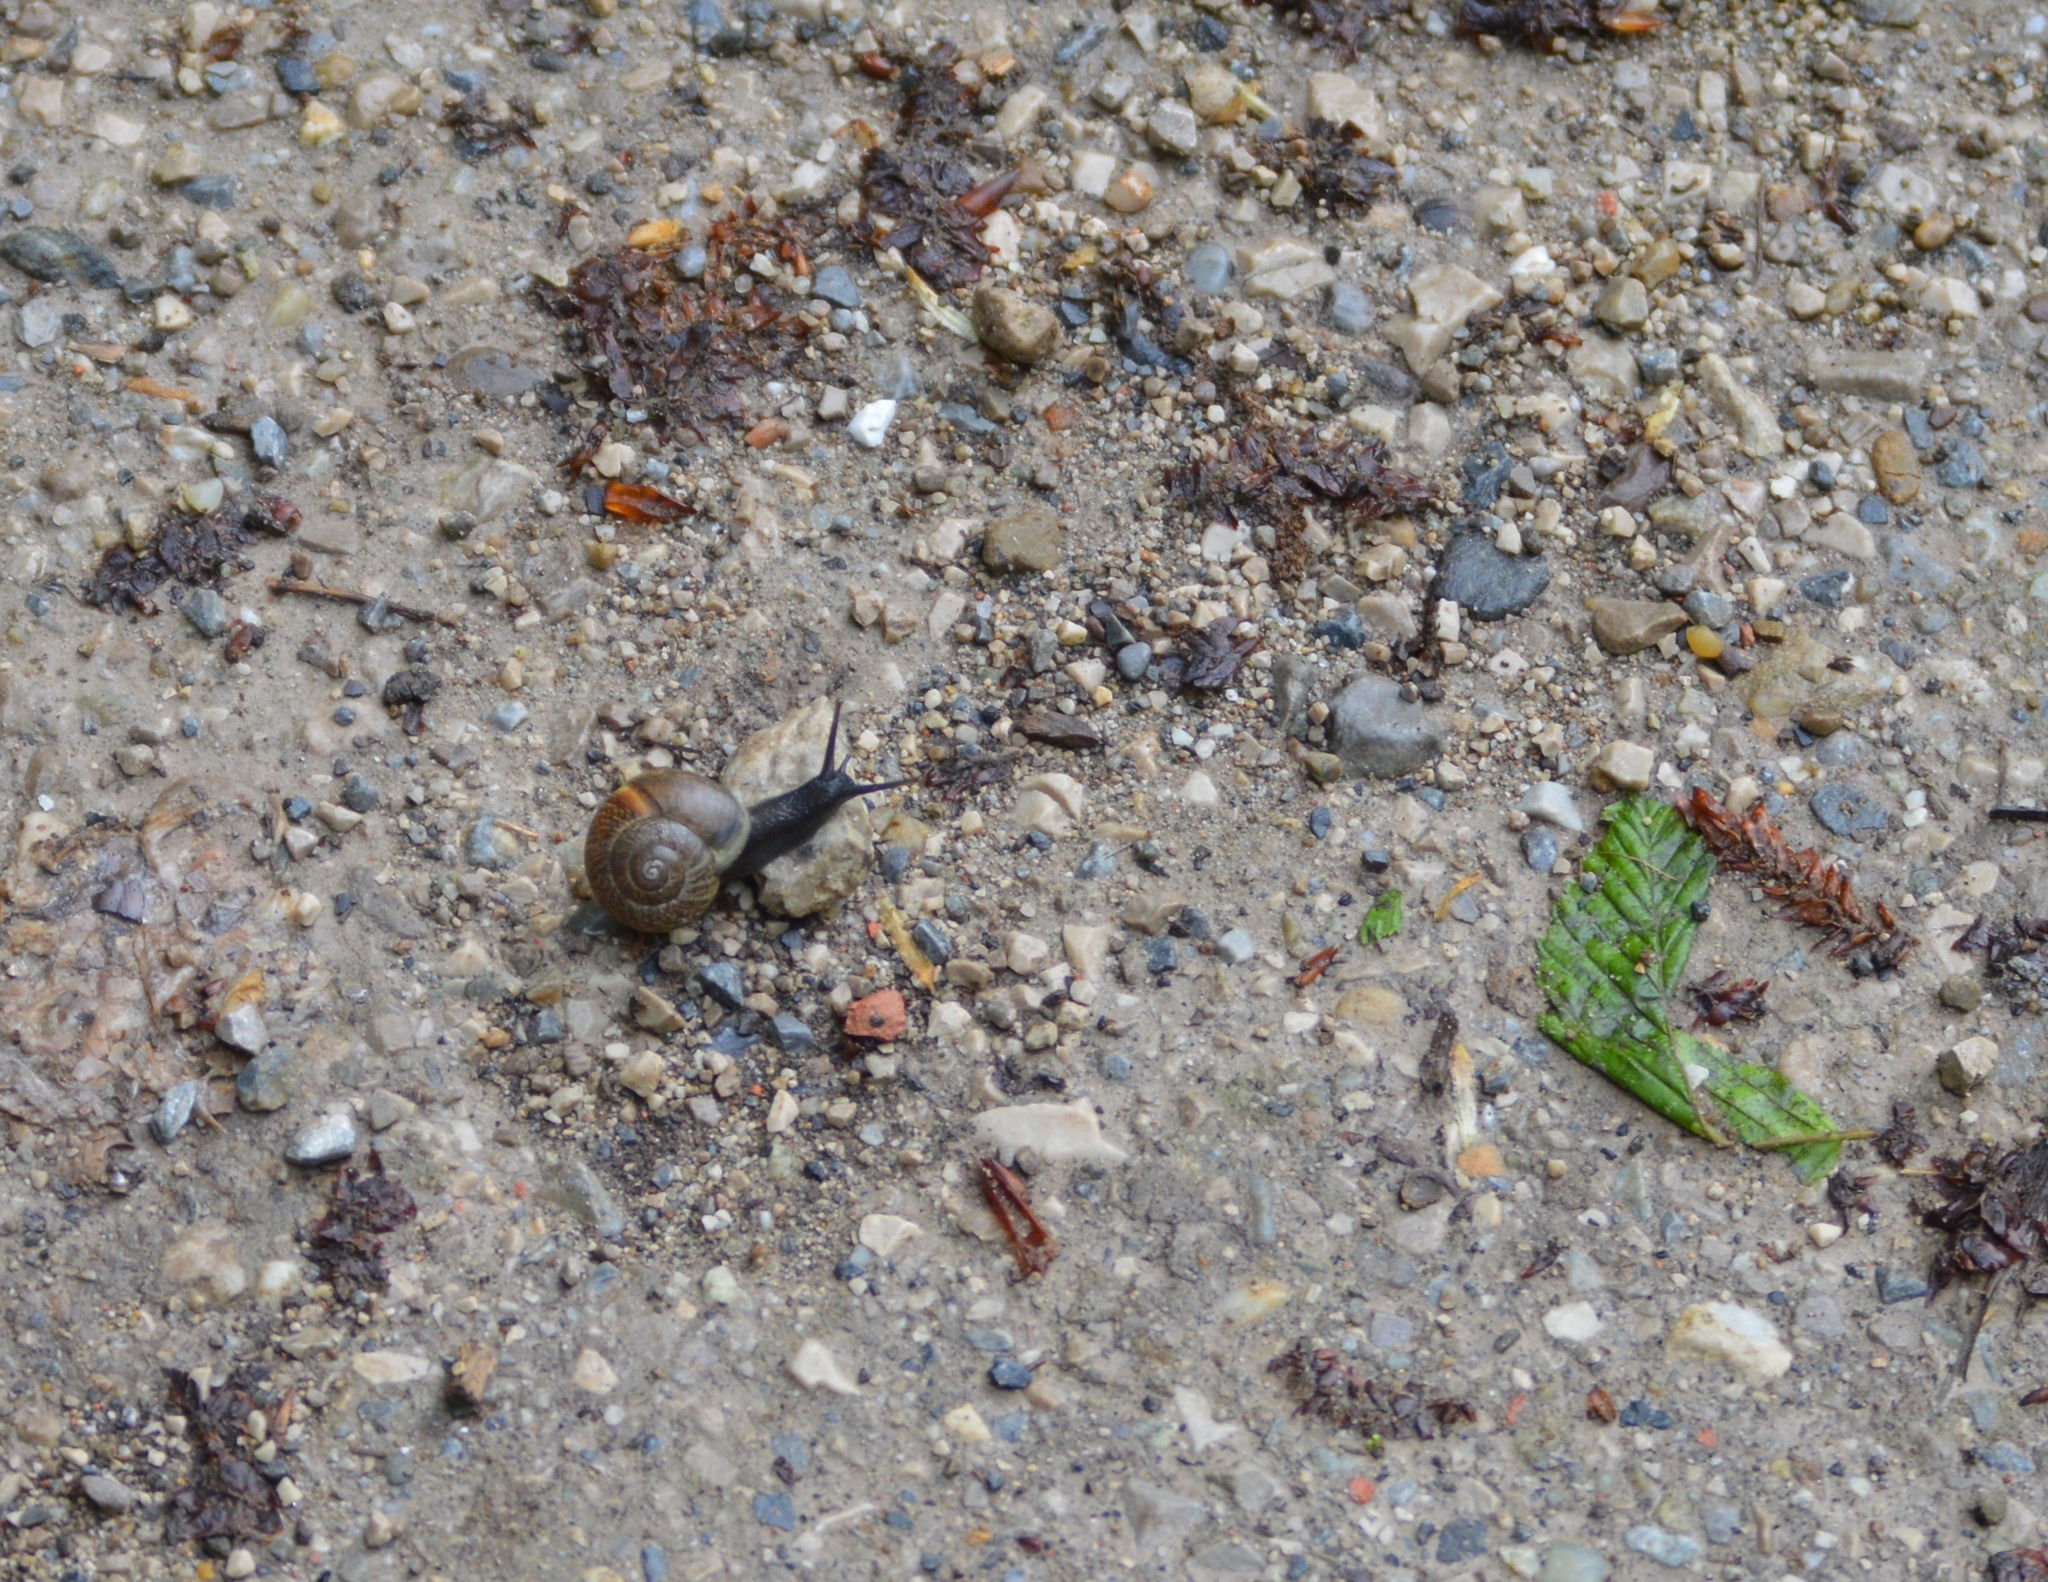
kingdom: Animalia
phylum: Mollusca
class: Gastropoda
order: Stylommatophora
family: Helicidae
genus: Arianta
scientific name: Arianta arbustorum
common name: Copse snail
